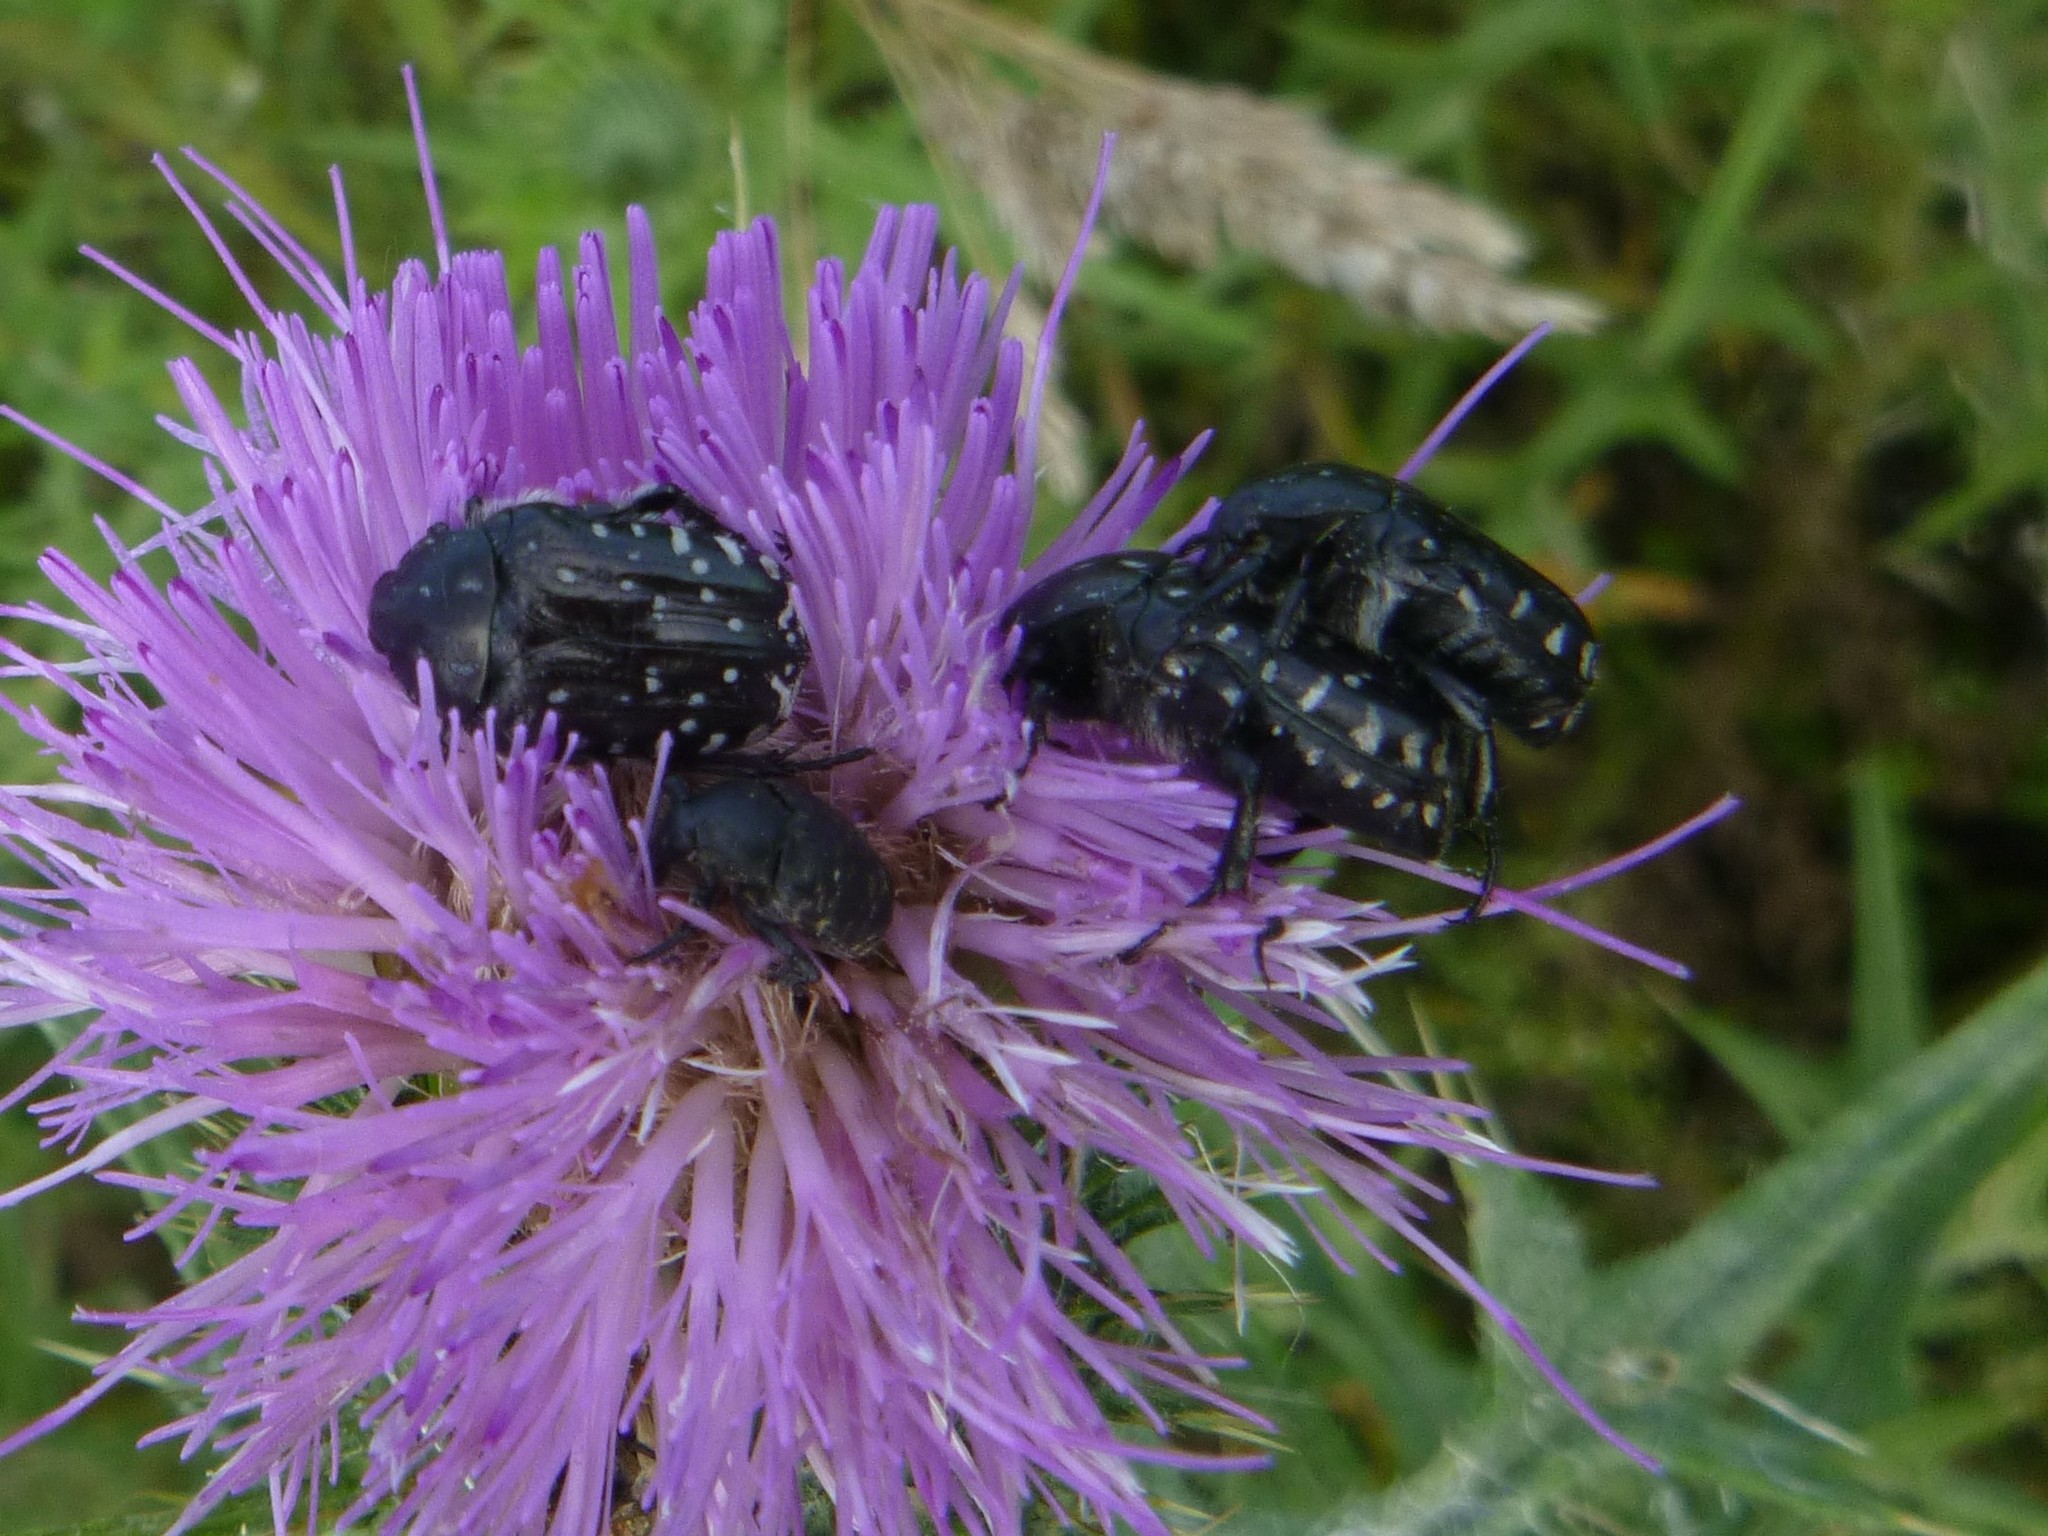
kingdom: Animalia
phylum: Arthropoda
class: Insecta
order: Coleoptera
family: Scarabaeidae
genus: Oxythyrea
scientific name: Oxythyrea funesta
